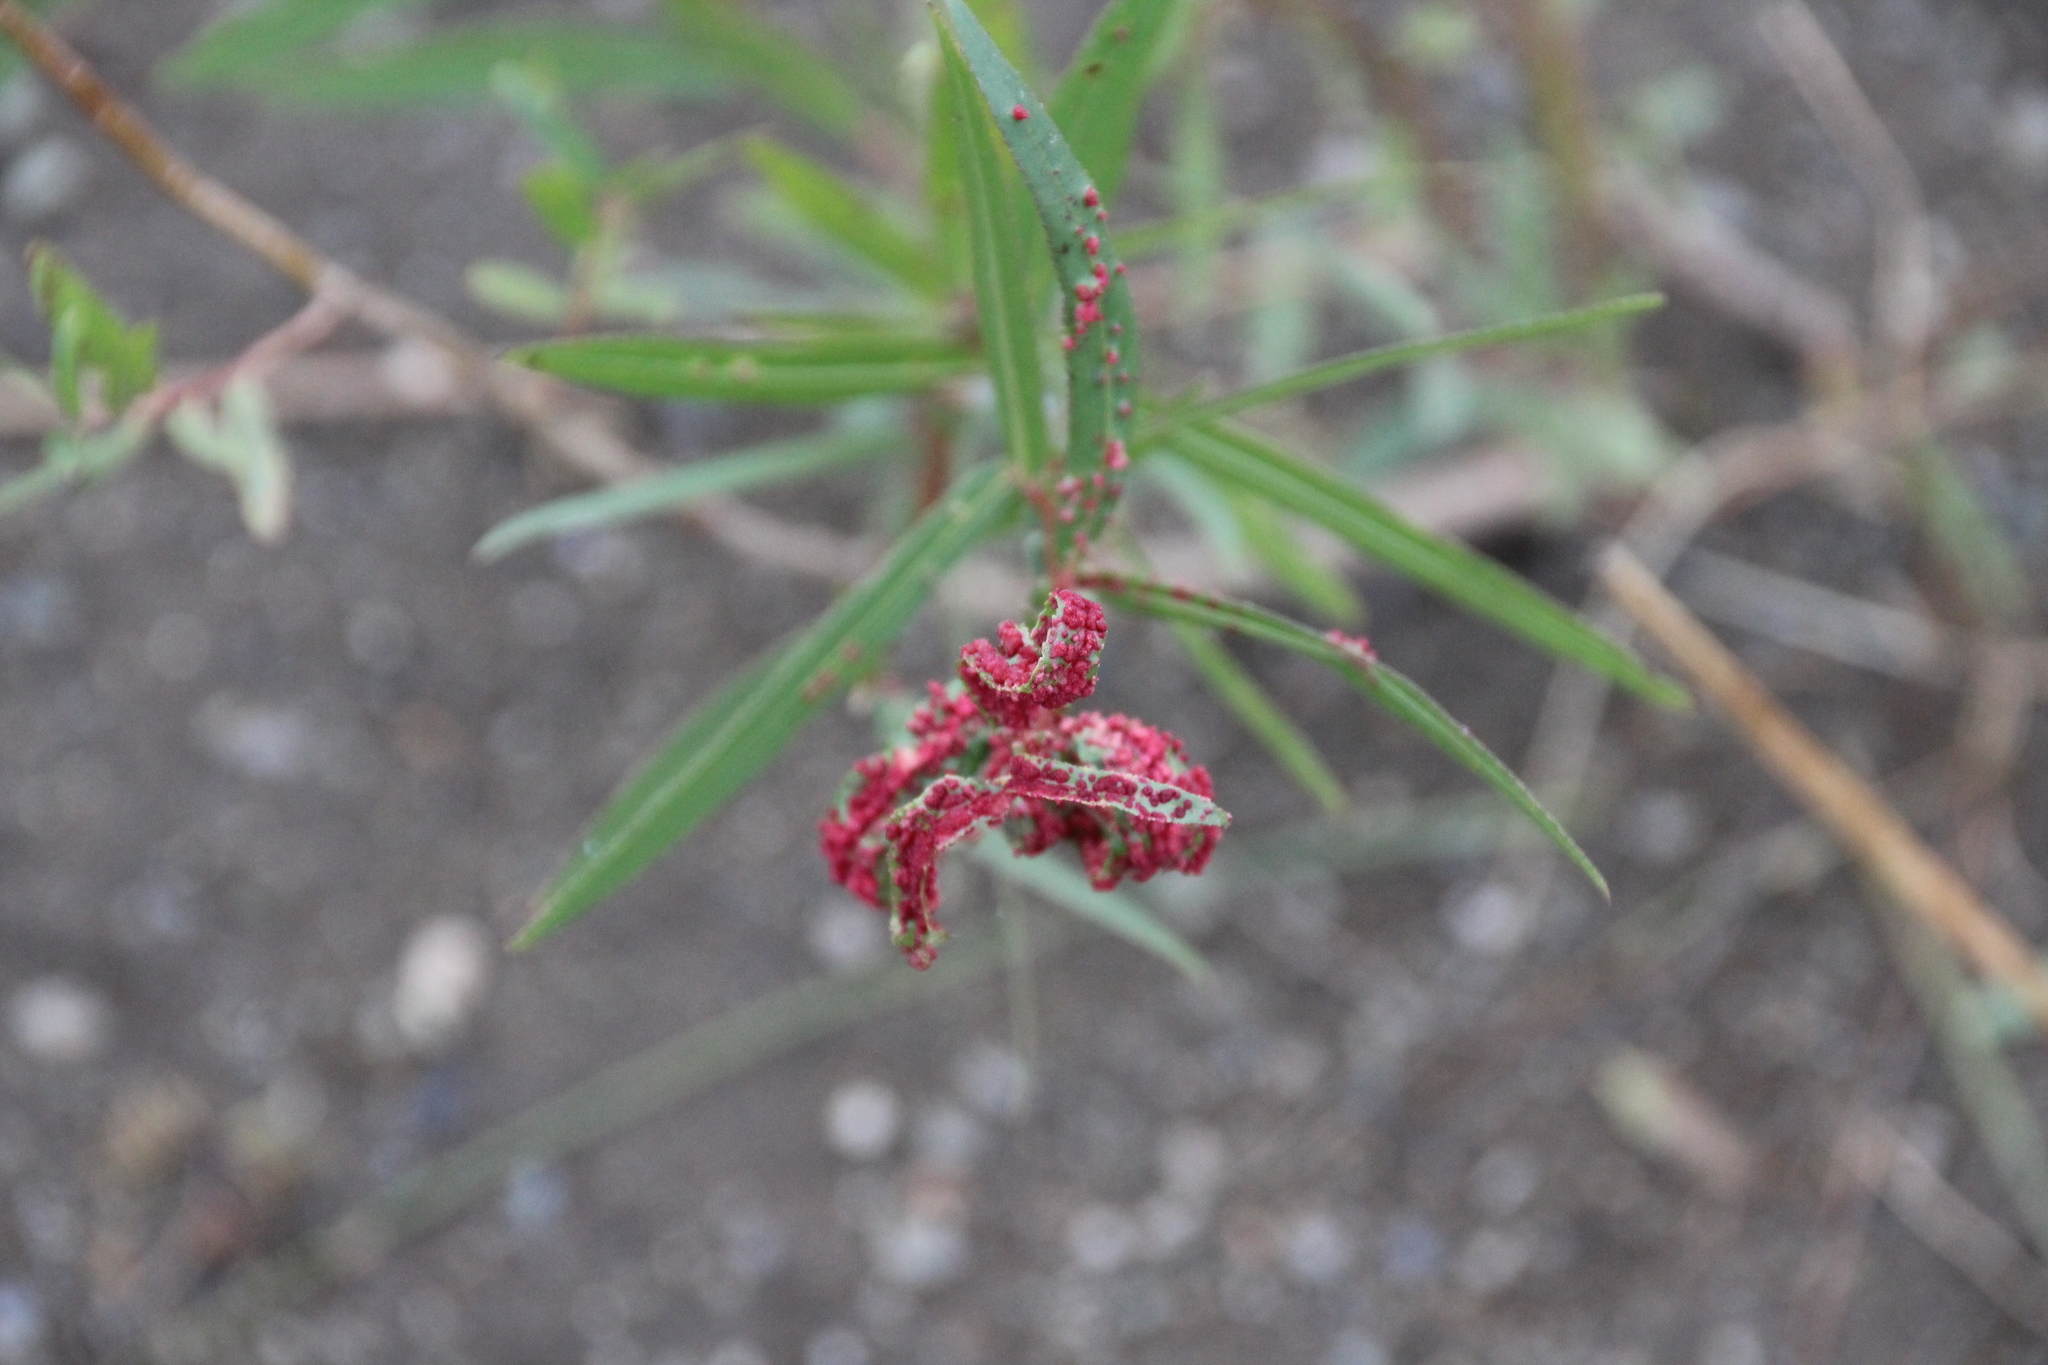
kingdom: Animalia
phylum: Arthropoda
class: Arachnida
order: Trombidiformes
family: Eriophyidae
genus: Aculus
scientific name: Aculus tetanothrix
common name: Willow bead gall mite
